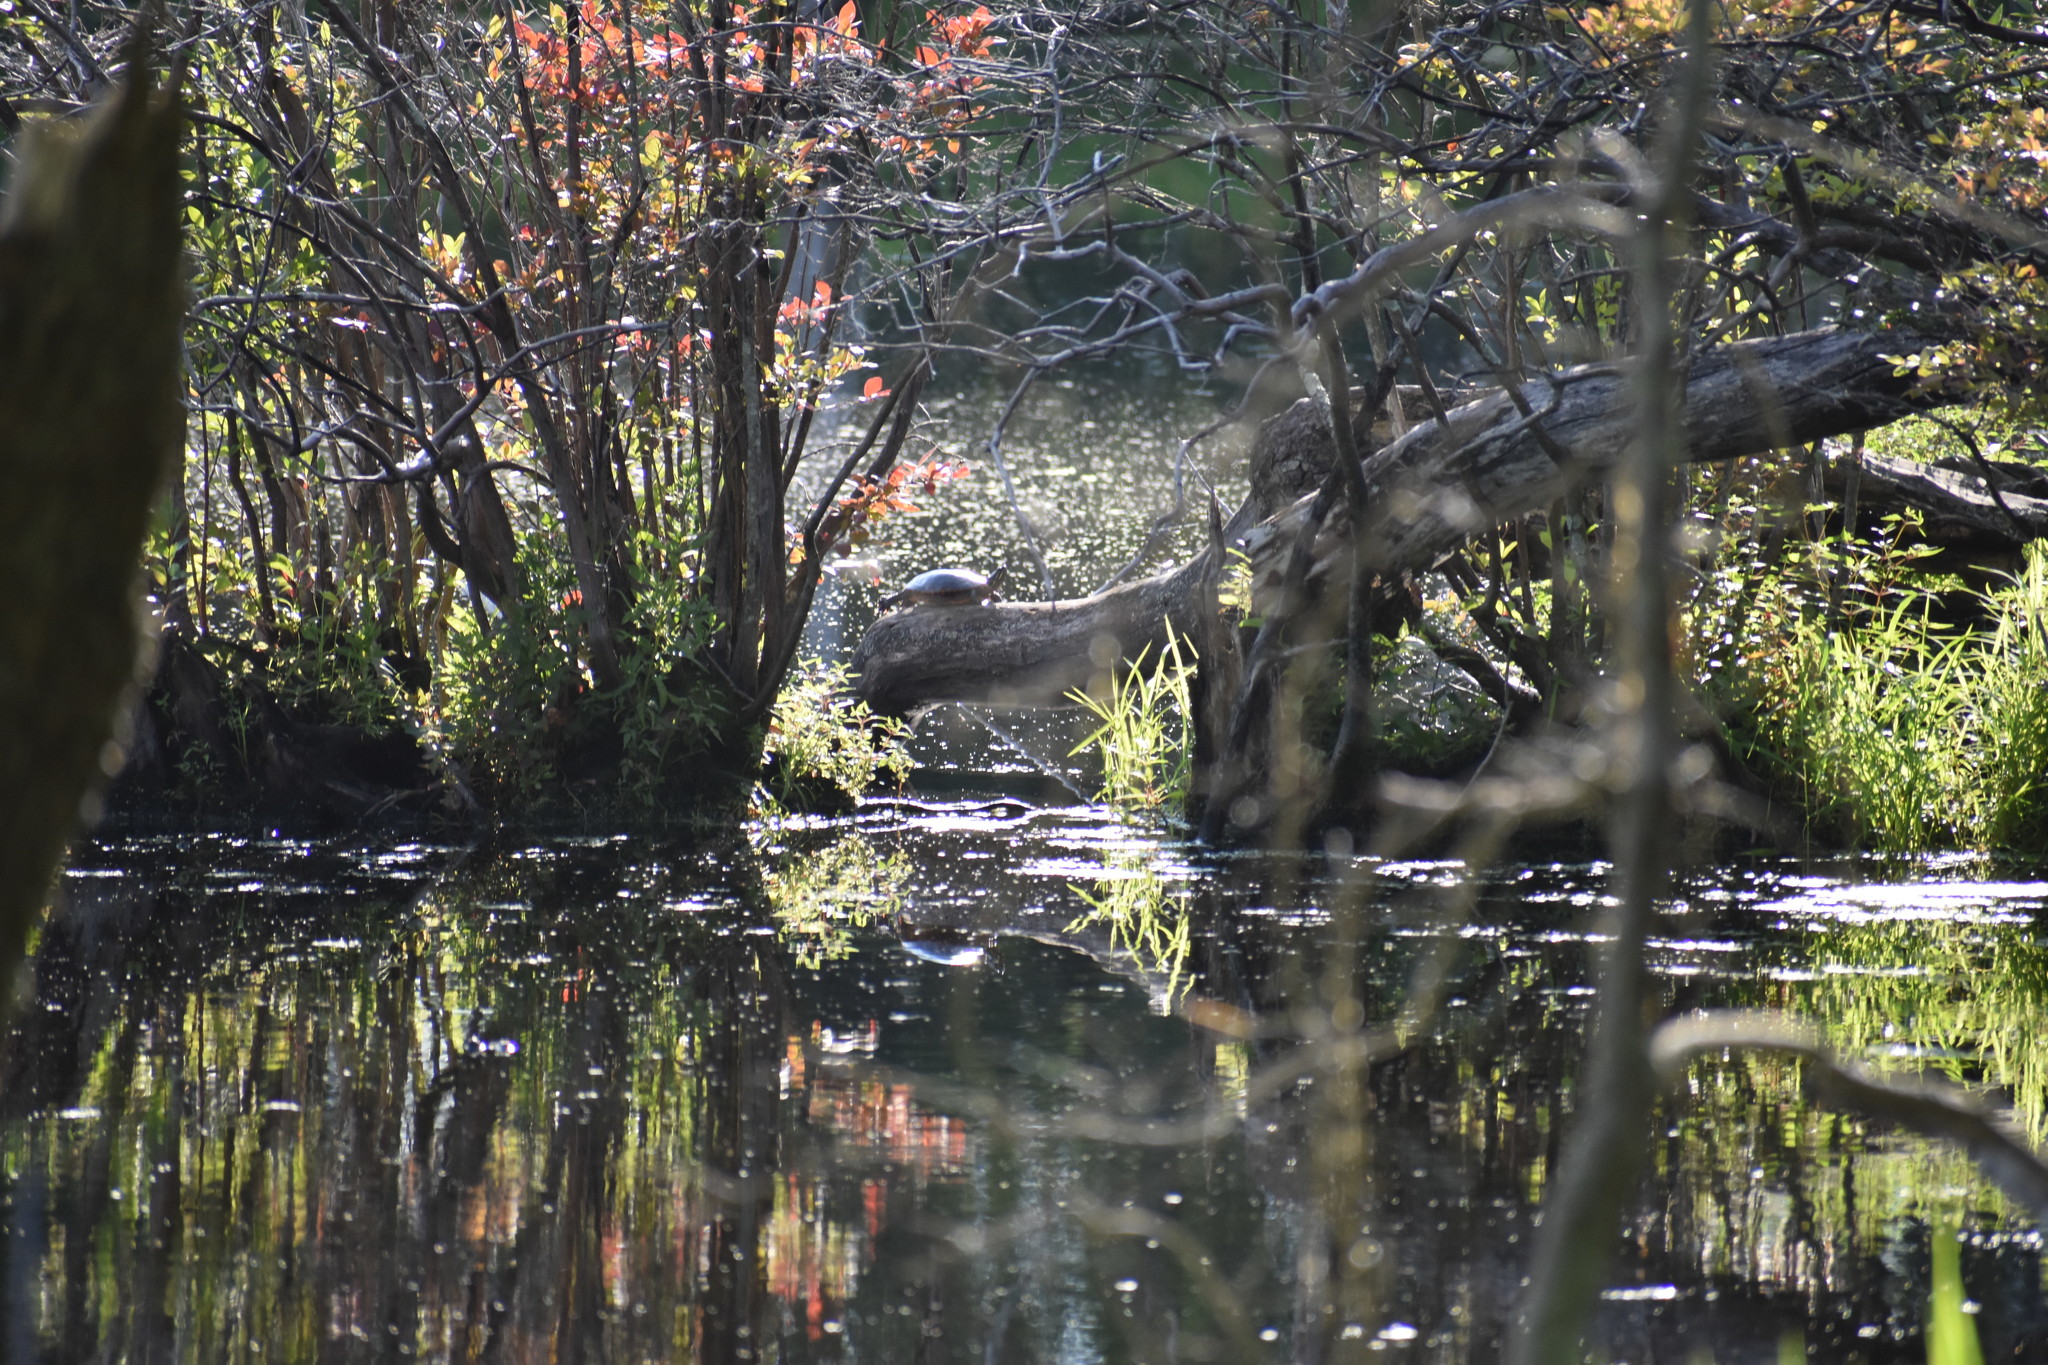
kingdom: Animalia
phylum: Chordata
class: Testudines
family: Emydidae
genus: Chrysemys
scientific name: Chrysemys picta
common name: Painted turtle
